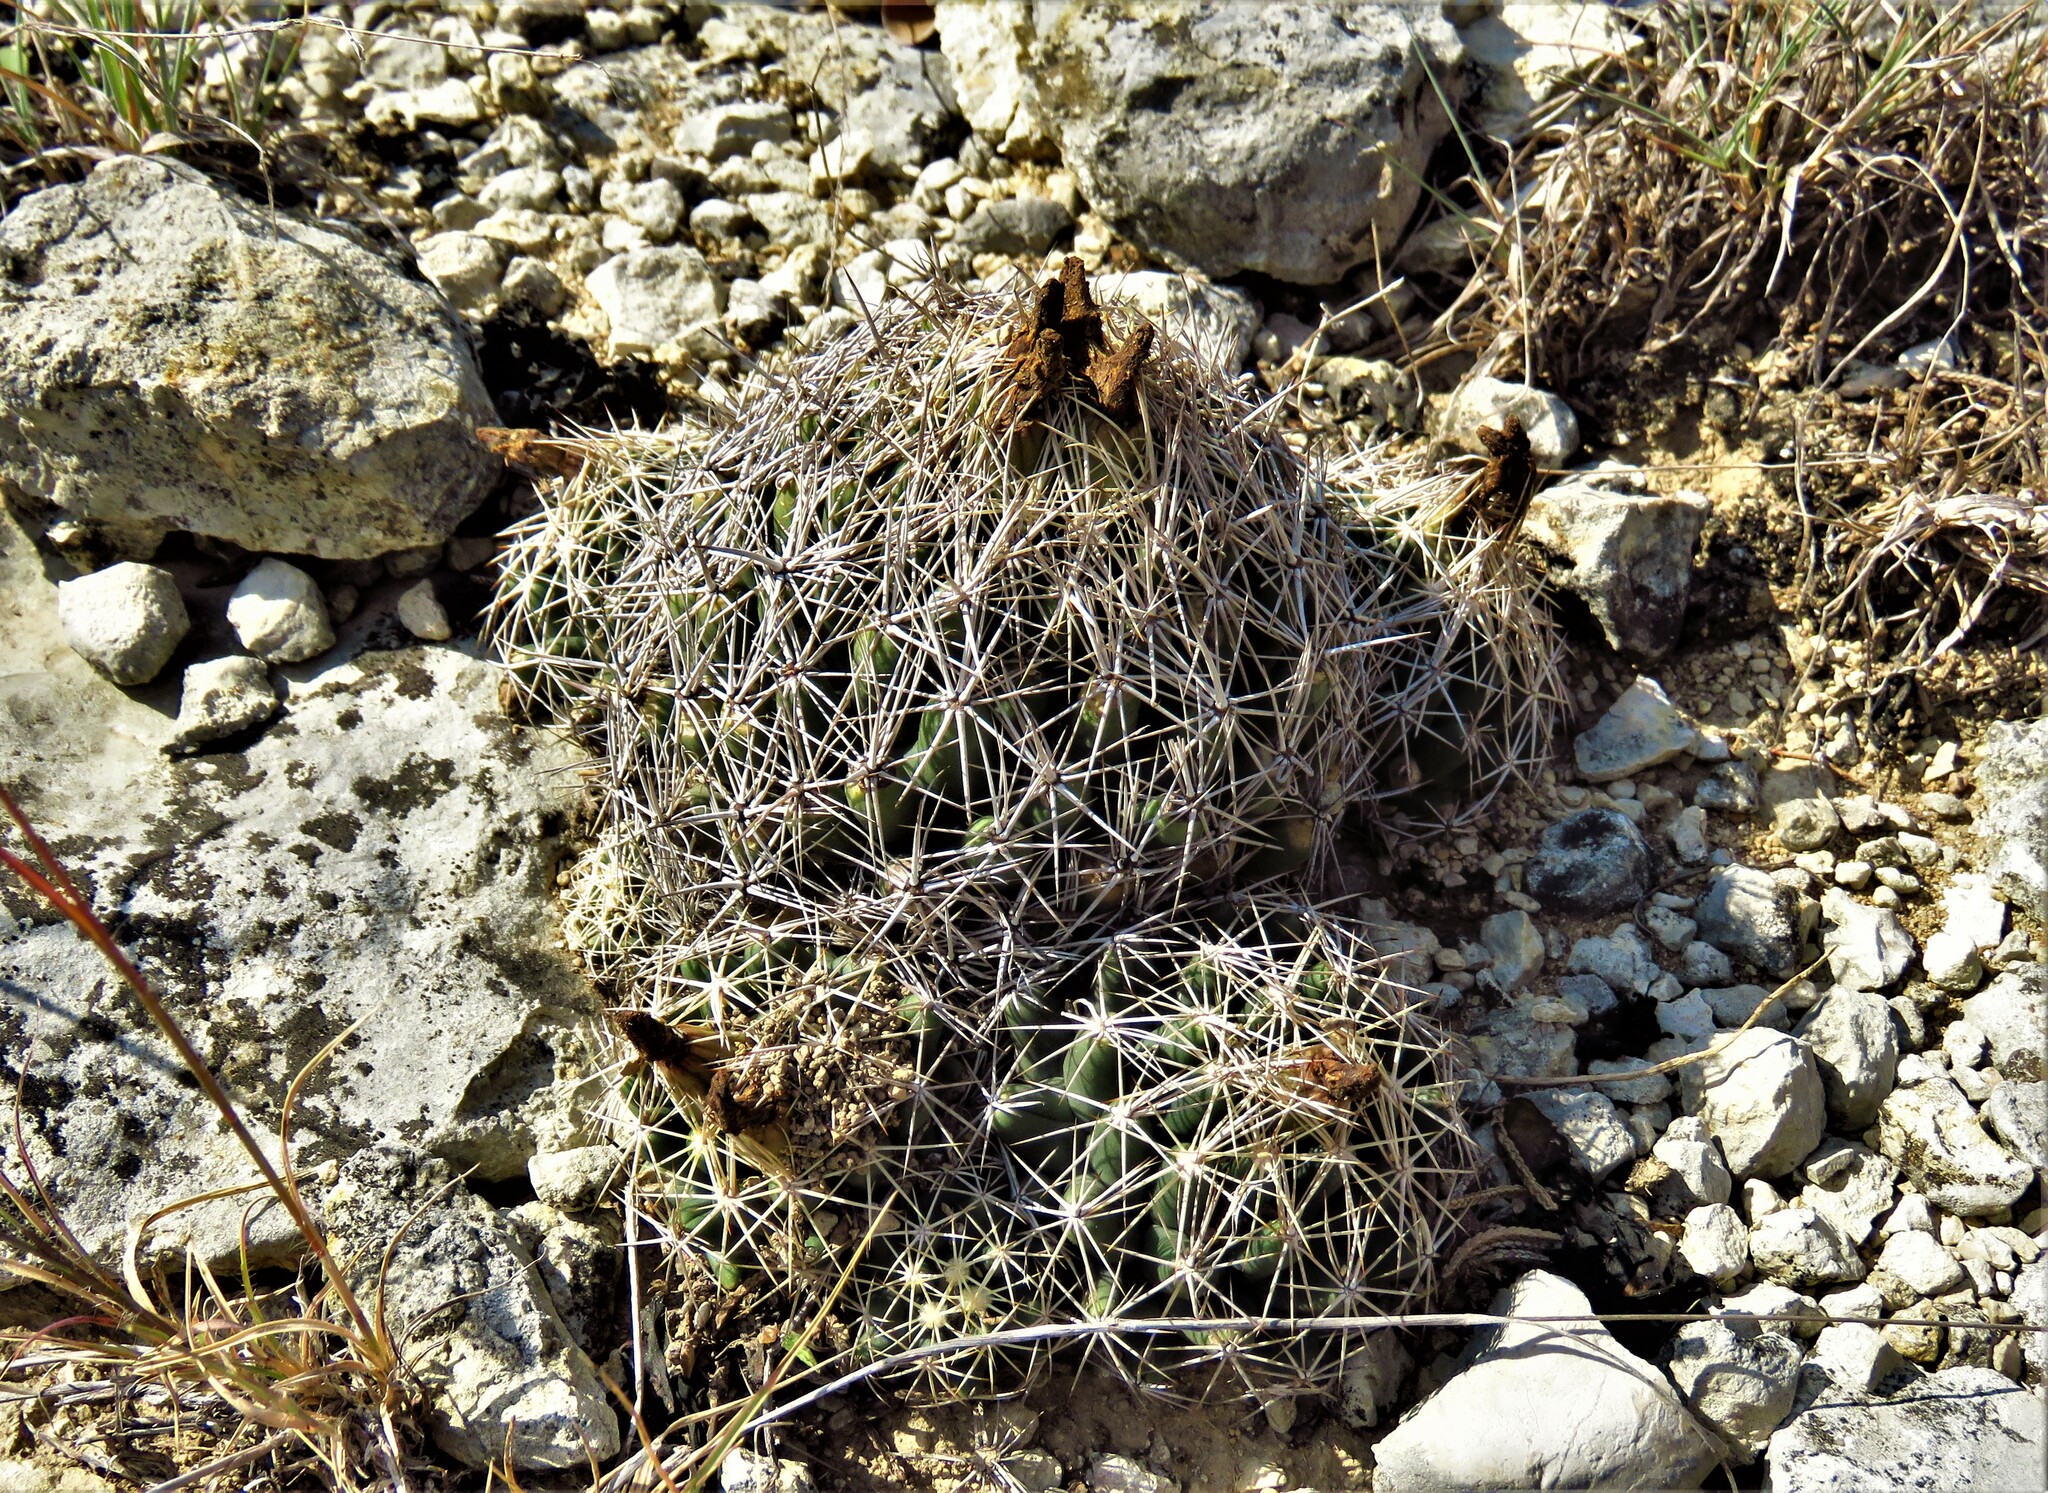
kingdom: Plantae
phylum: Tracheophyta
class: Magnoliopsida
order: Caryophyllales
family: Cactaceae
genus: Coryphantha
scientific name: Coryphantha sulcata
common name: Finger cactus
